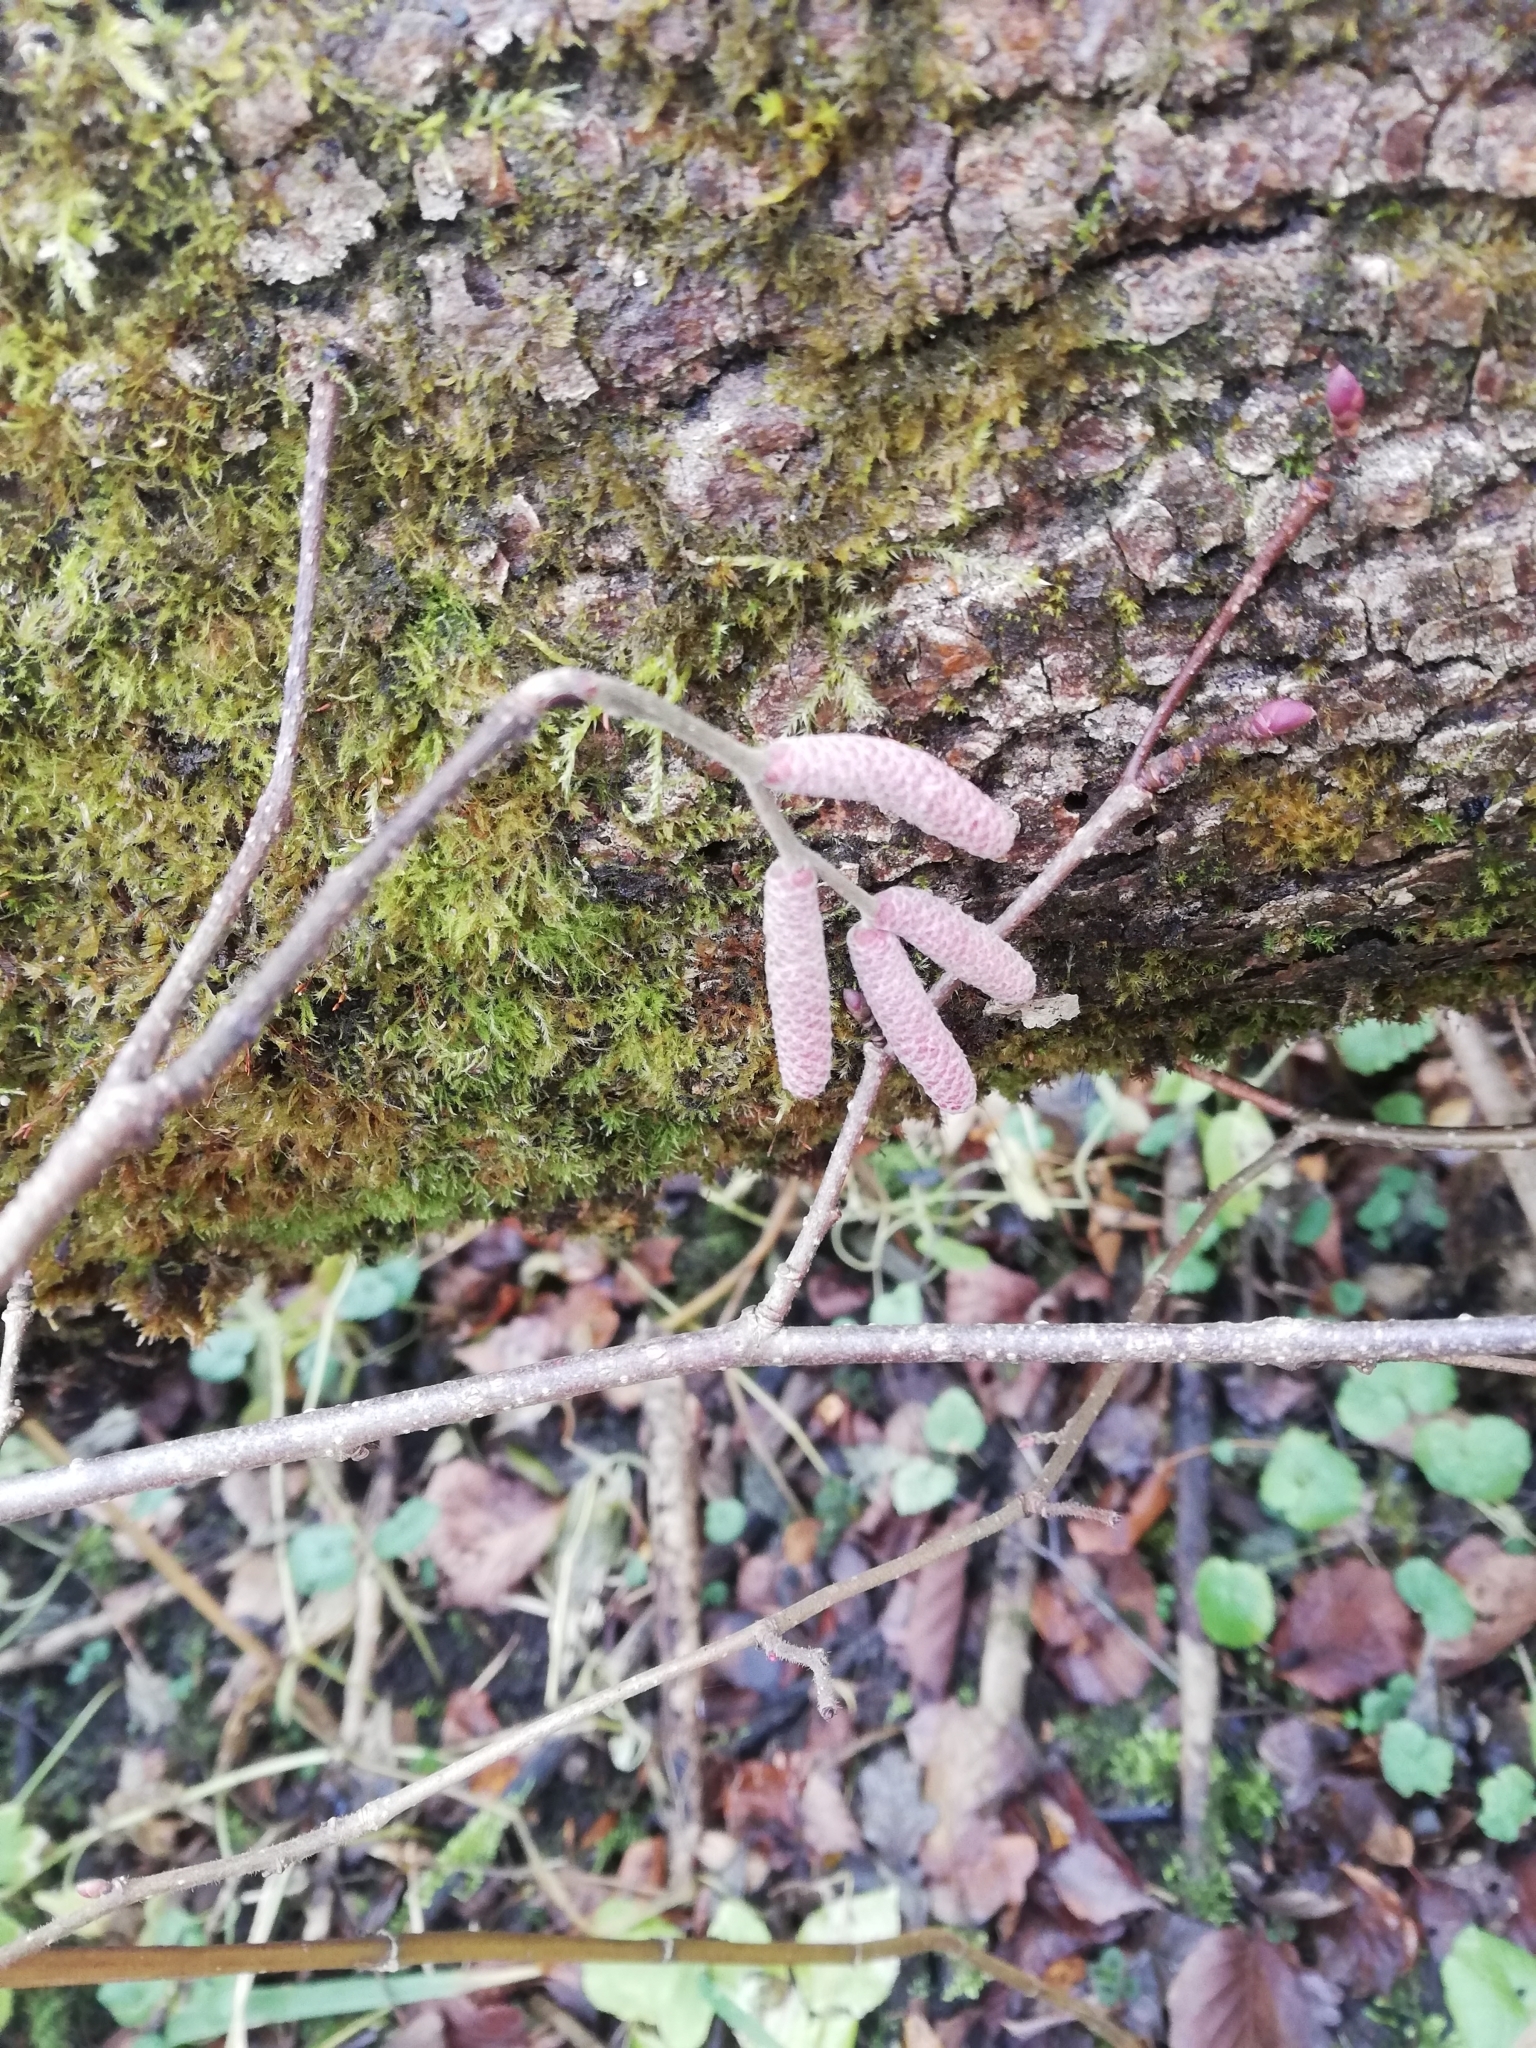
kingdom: Plantae
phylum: Tracheophyta
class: Magnoliopsida
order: Fagales
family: Betulaceae
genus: Corylus
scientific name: Corylus avellana
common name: European hazel
